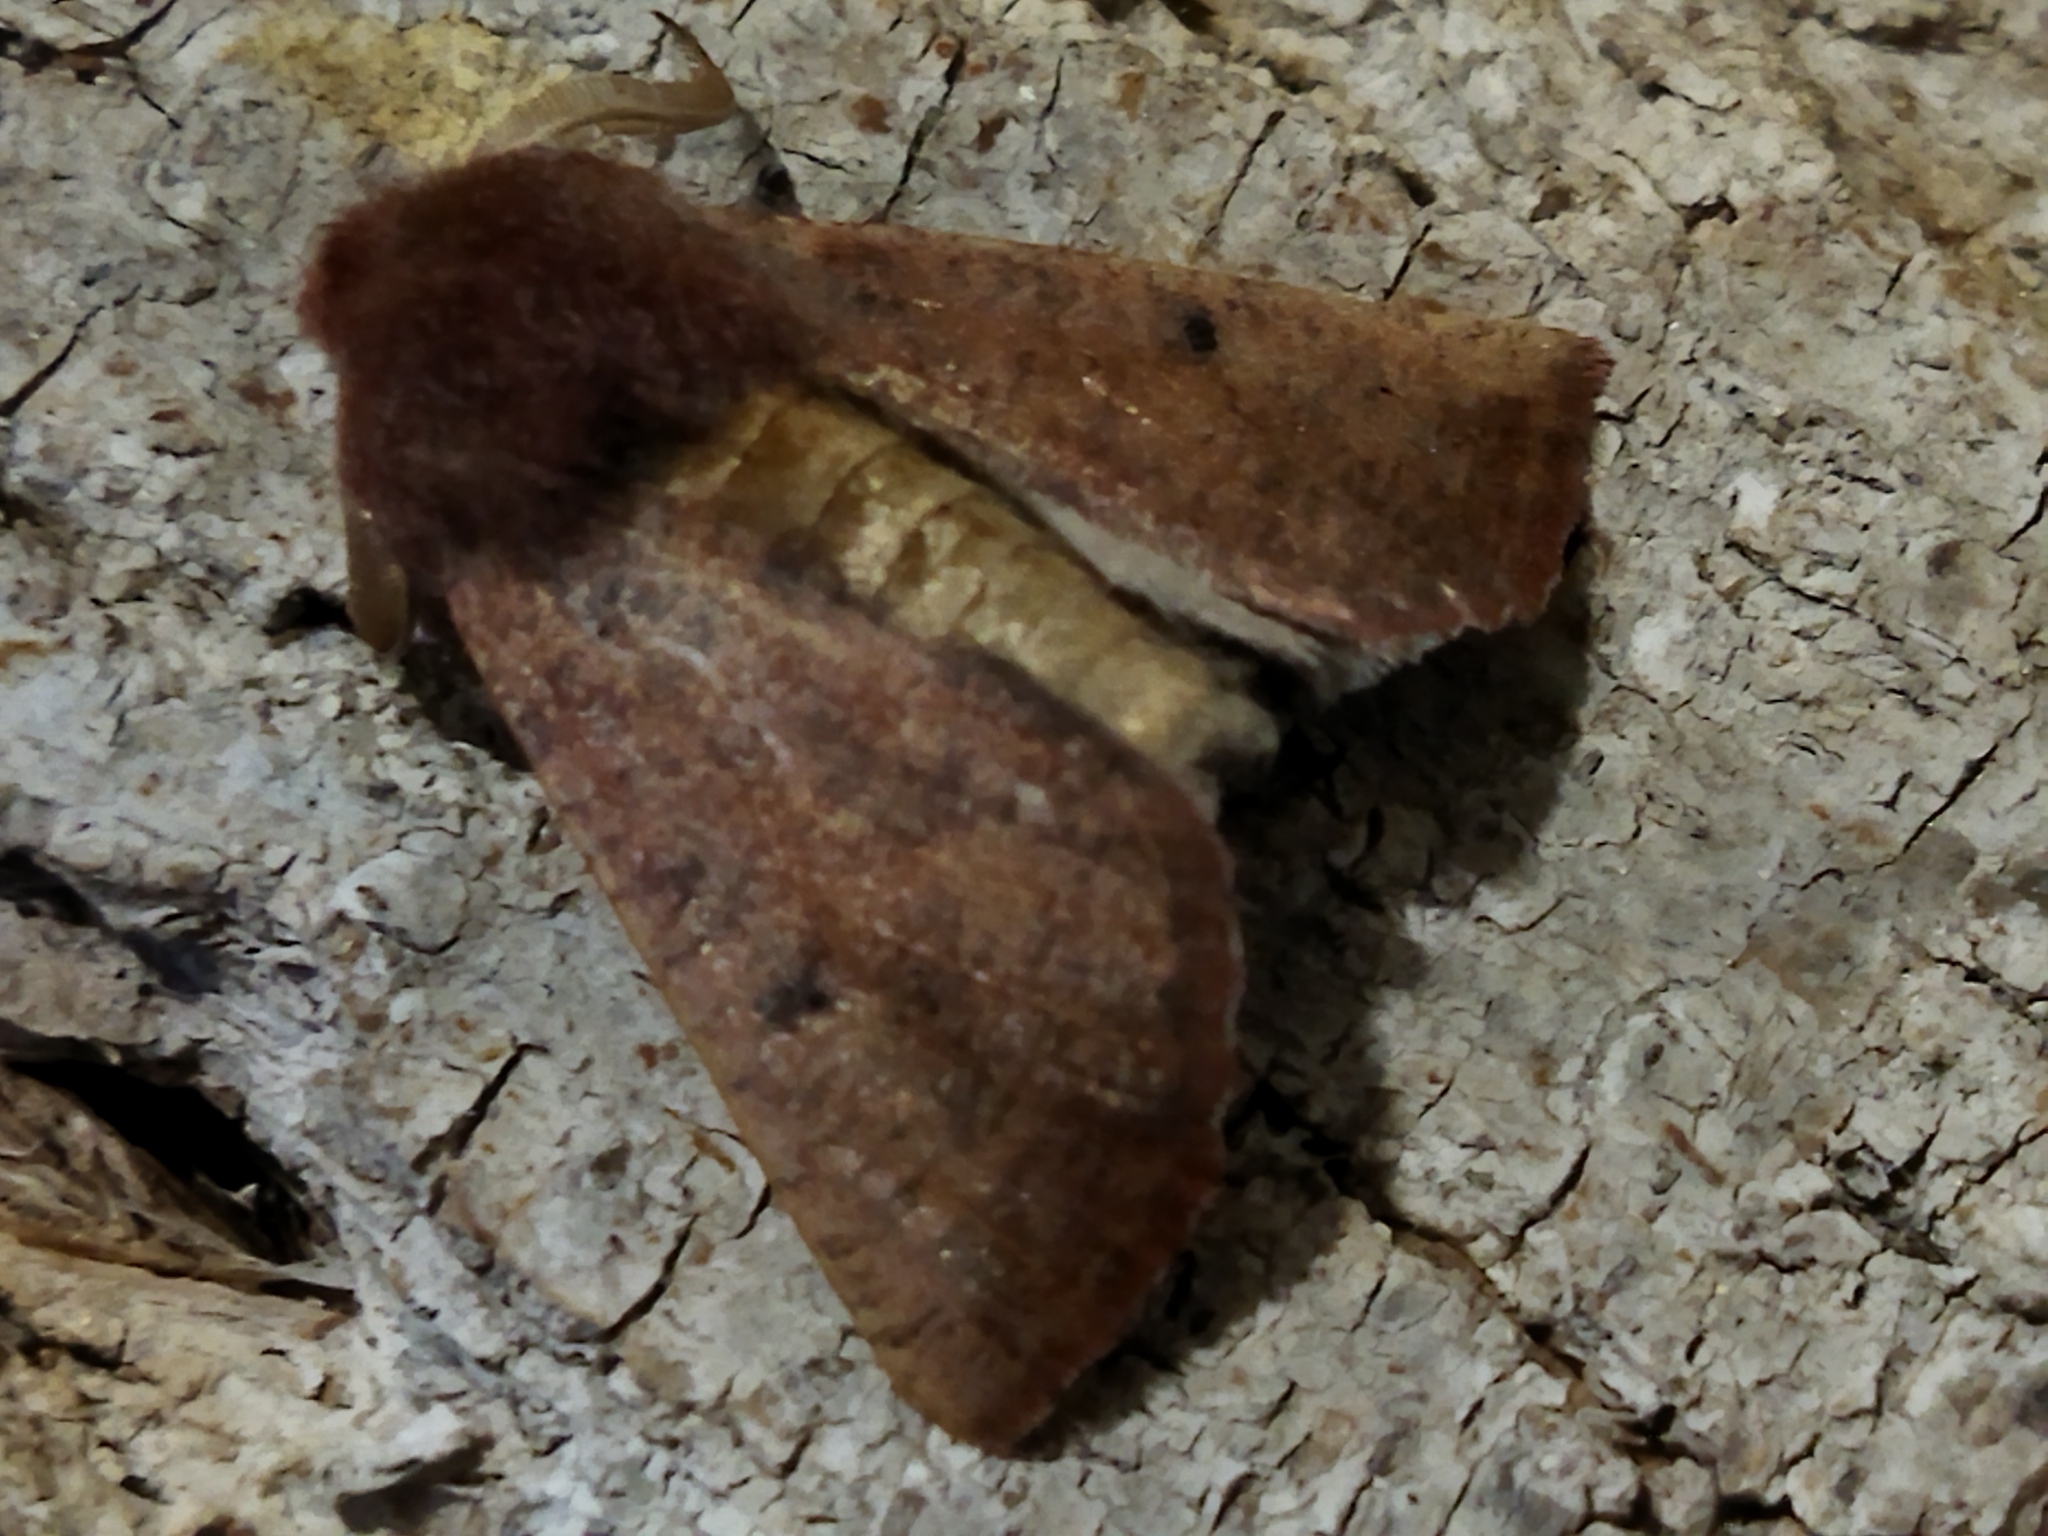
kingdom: Animalia
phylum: Arthropoda
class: Insecta
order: Lepidoptera
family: Geometridae
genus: Dasycorsa
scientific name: Dasycorsa modesta
